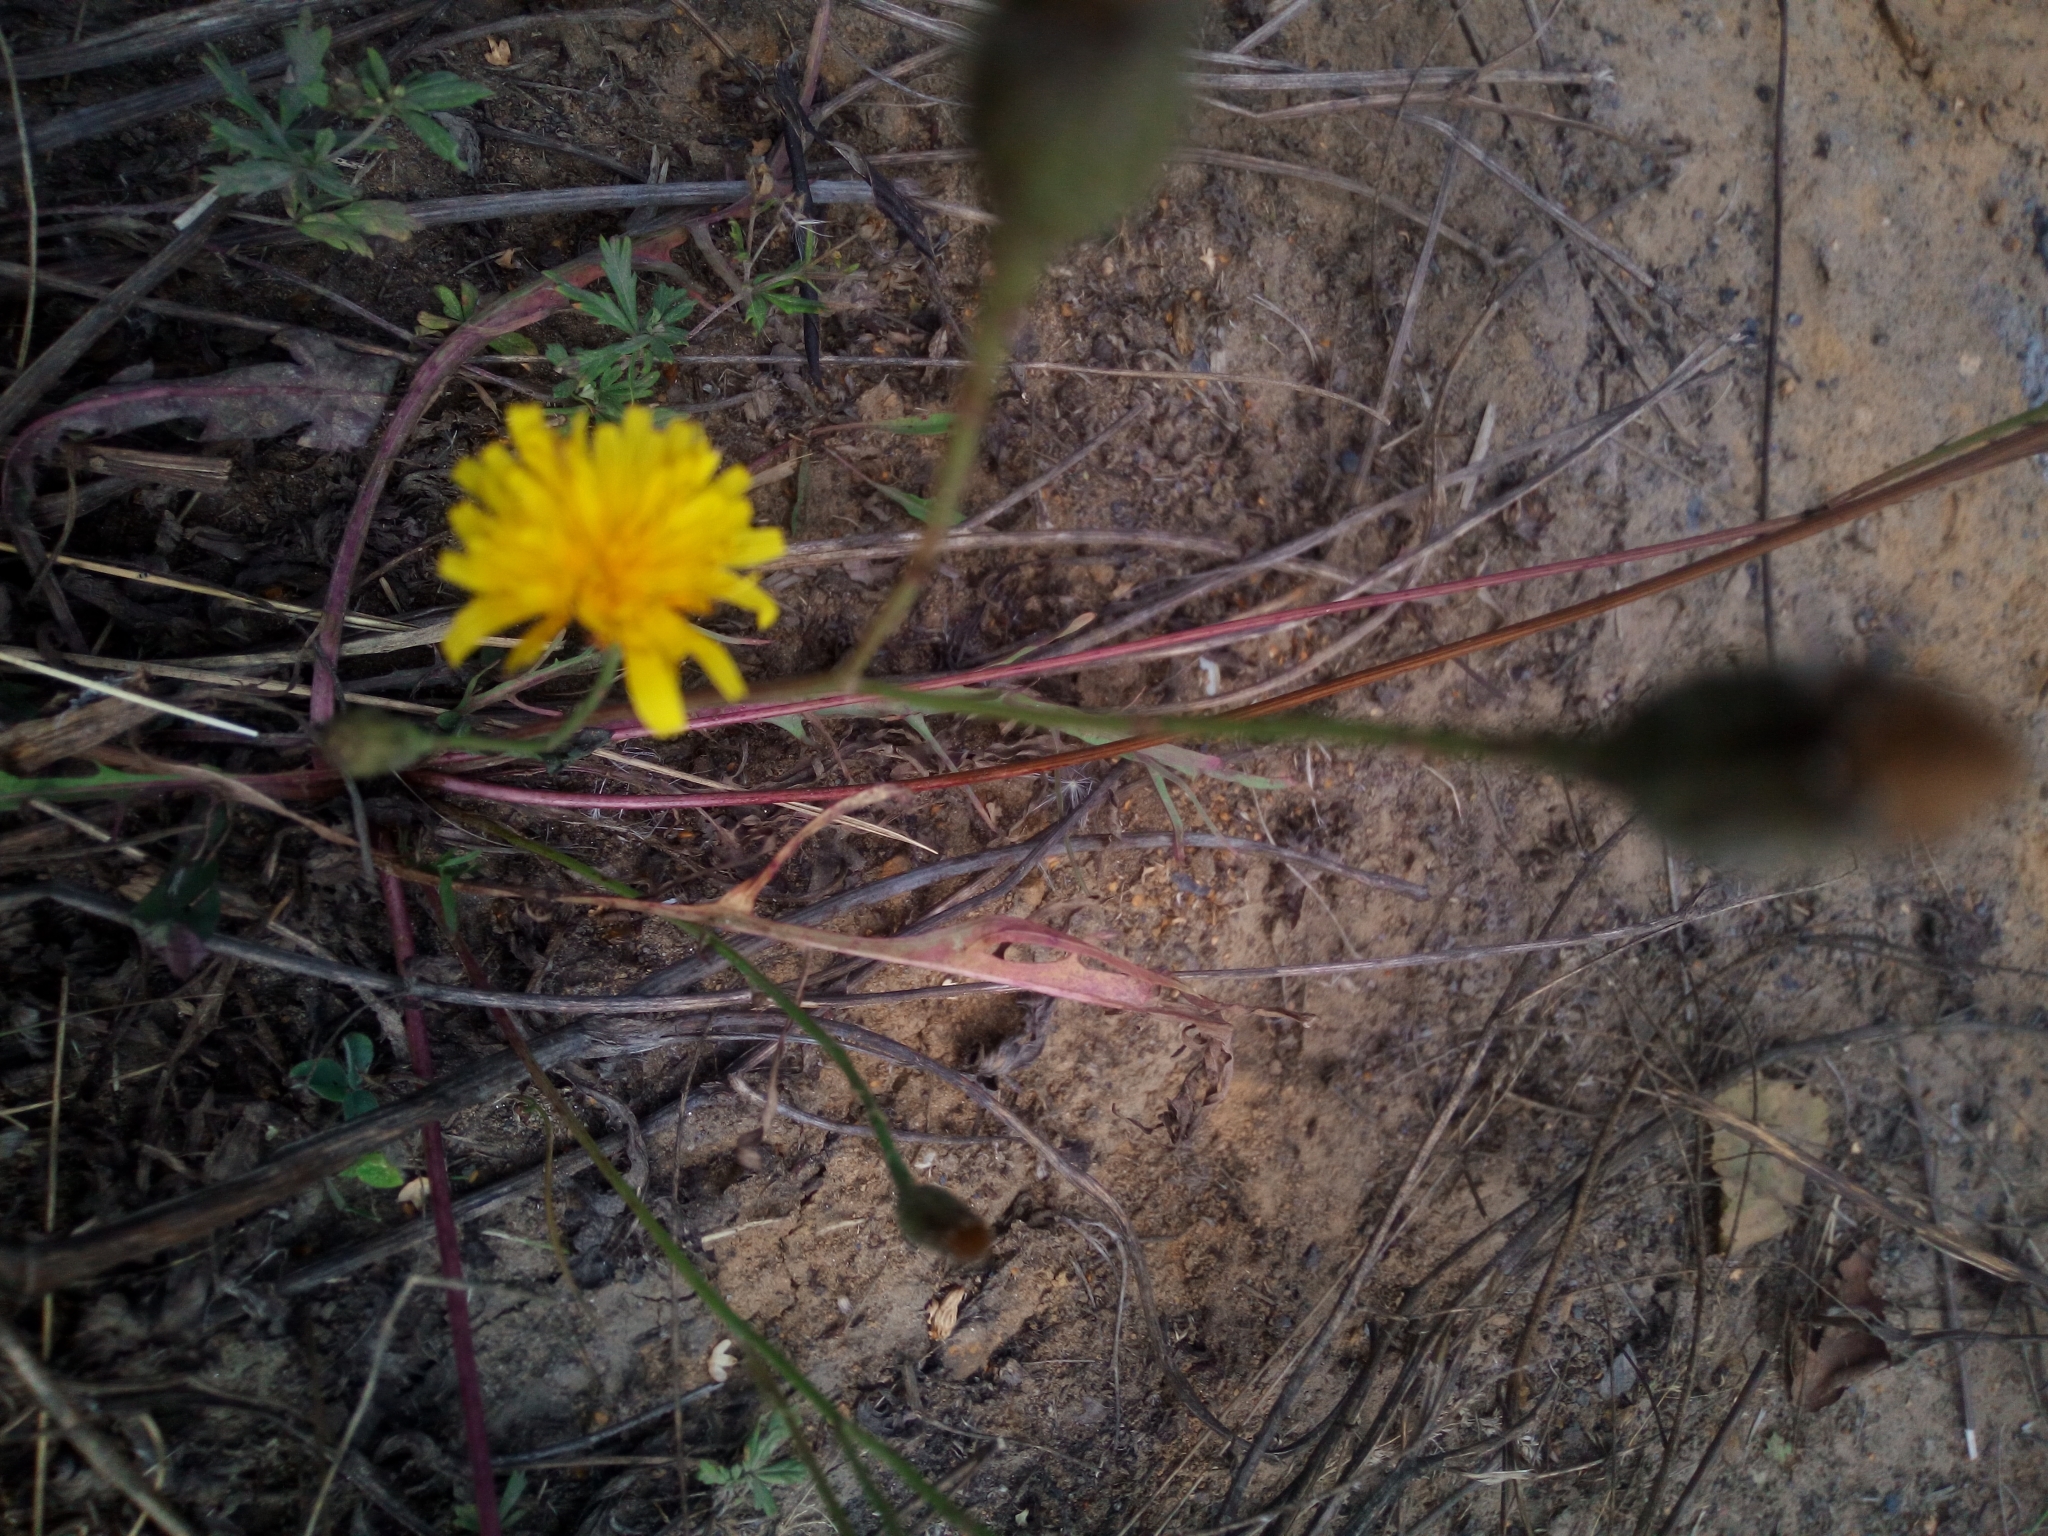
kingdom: Plantae
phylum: Tracheophyta
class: Magnoliopsida
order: Asterales
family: Asteraceae
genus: Scorzoneroides
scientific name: Scorzoneroides autumnalis
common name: Autumn hawkbit
